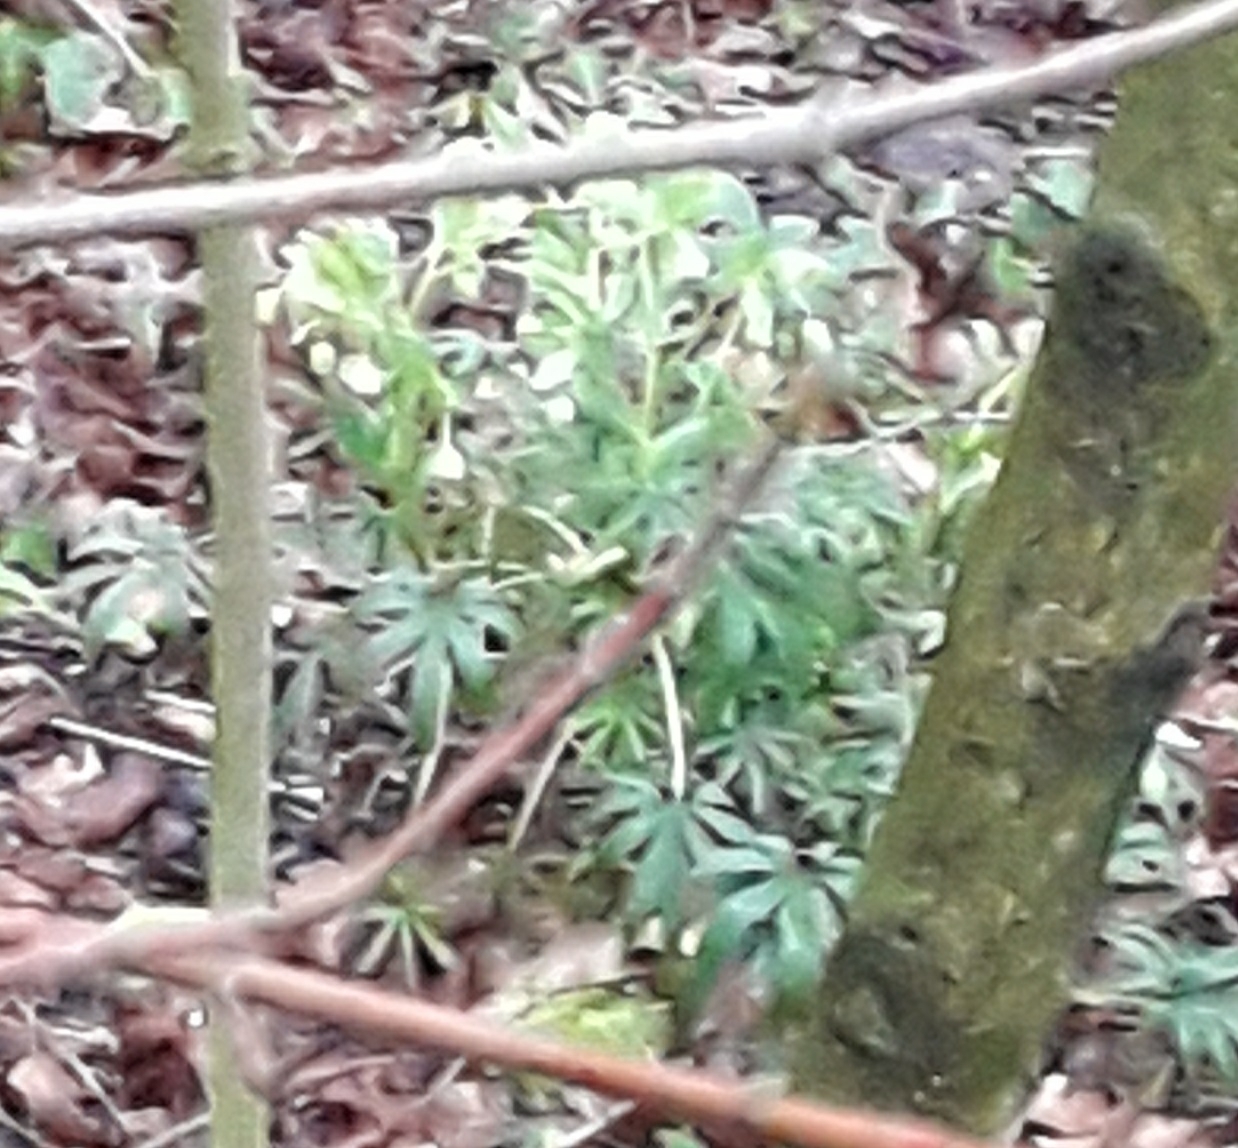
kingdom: Plantae
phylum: Tracheophyta
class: Magnoliopsida
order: Ranunculales
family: Ranunculaceae
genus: Helleborus
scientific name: Helleborus foetidus
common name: Stinking hellebore
